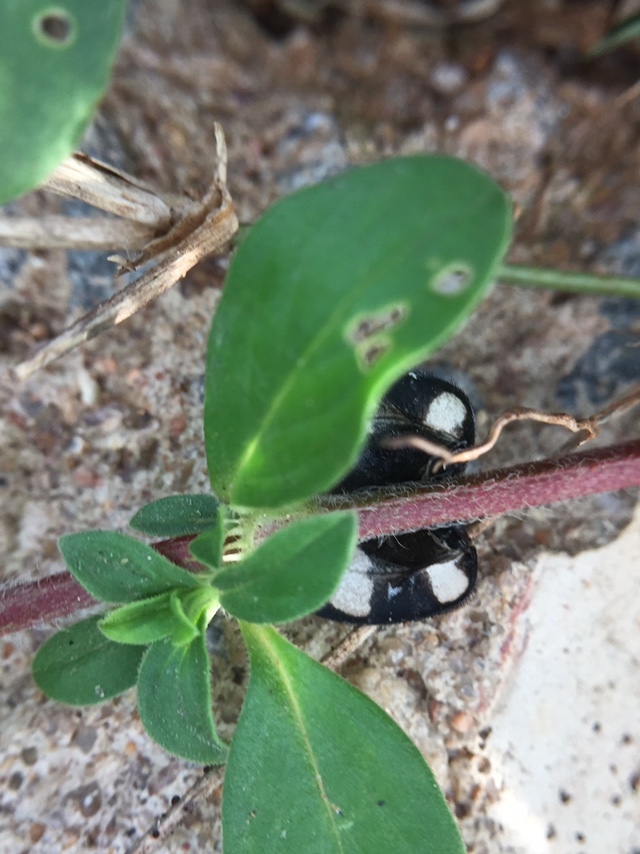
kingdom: Animalia
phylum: Arthropoda
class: Insecta
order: Blattodea
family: Corydiidae
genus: Therea
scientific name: Therea petiveriana
